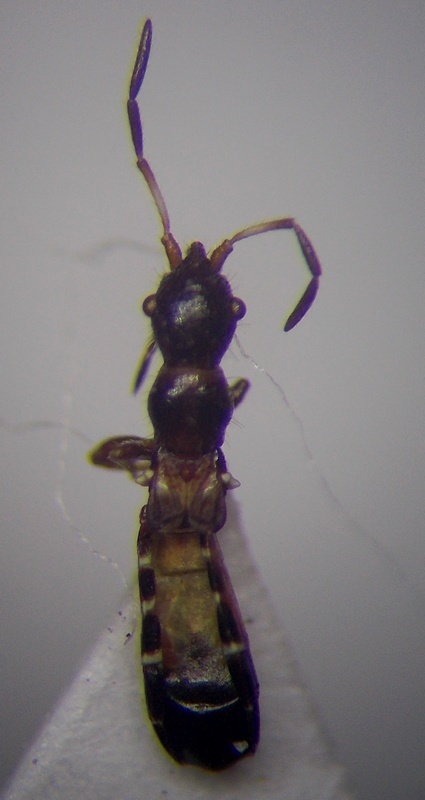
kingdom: Animalia
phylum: Arthropoda
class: Insecta
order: Hemiptera
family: Oxycarenidae
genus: Bogdiana
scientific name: Bogdiana myrmica
